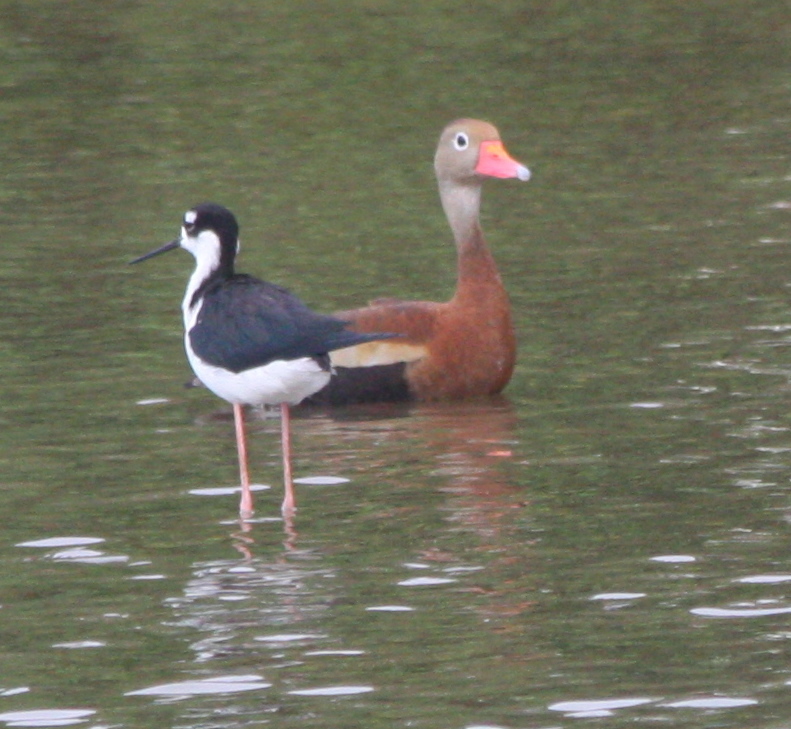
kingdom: Animalia
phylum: Chordata
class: Aves
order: Charadriiformes
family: Recurvirostridae
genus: Himantopus
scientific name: Himantopus mexicanus
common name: Black-necked stilt
